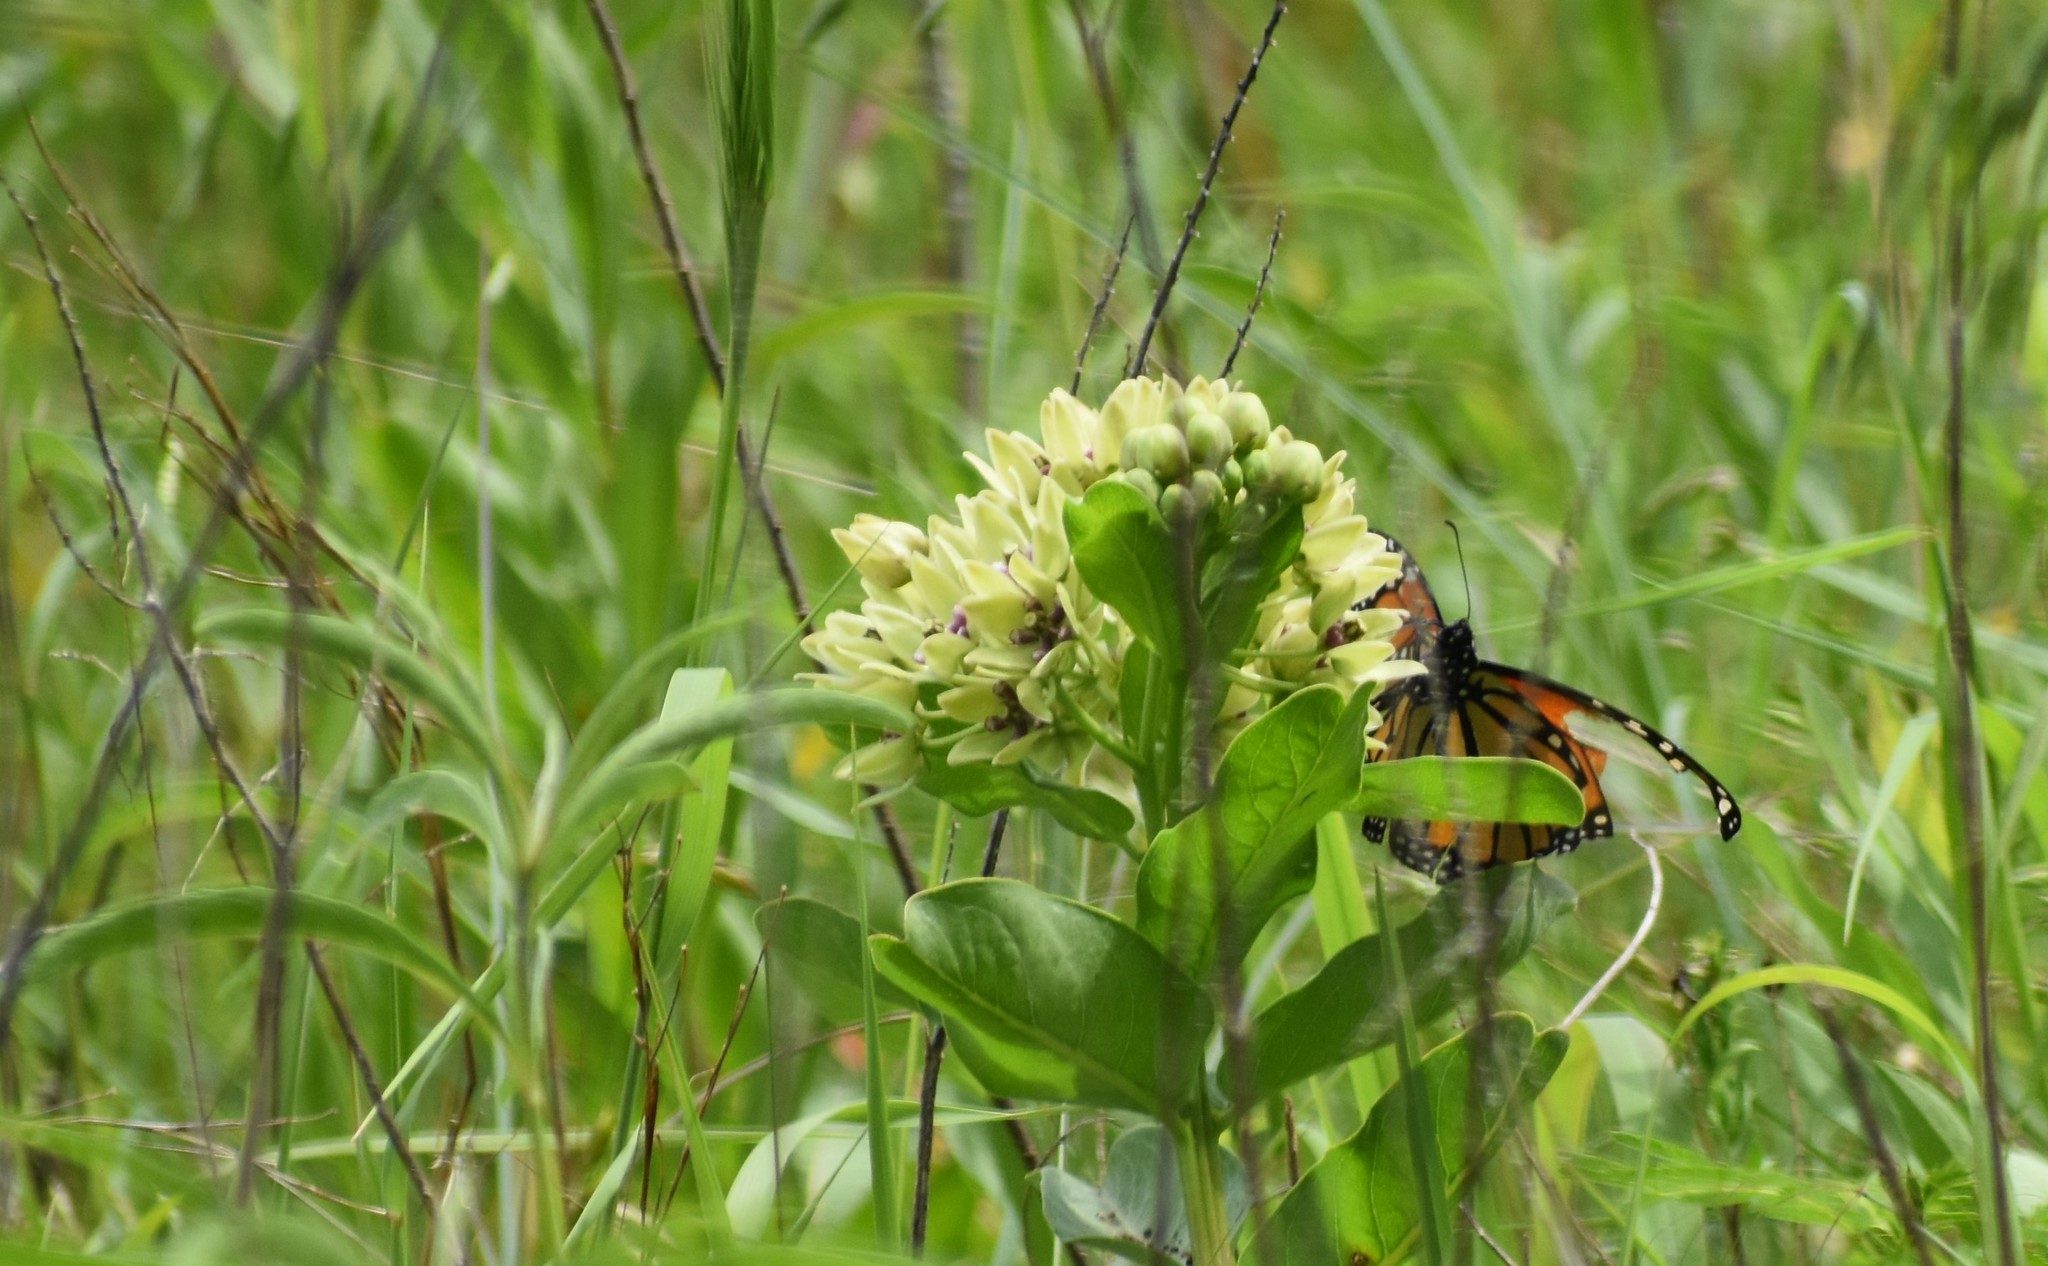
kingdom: Animalia
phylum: Arthropoda
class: Insecta
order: Lepidoptera
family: Nymphalidae
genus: Danaus
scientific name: Danaus plexippus
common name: Monarch
